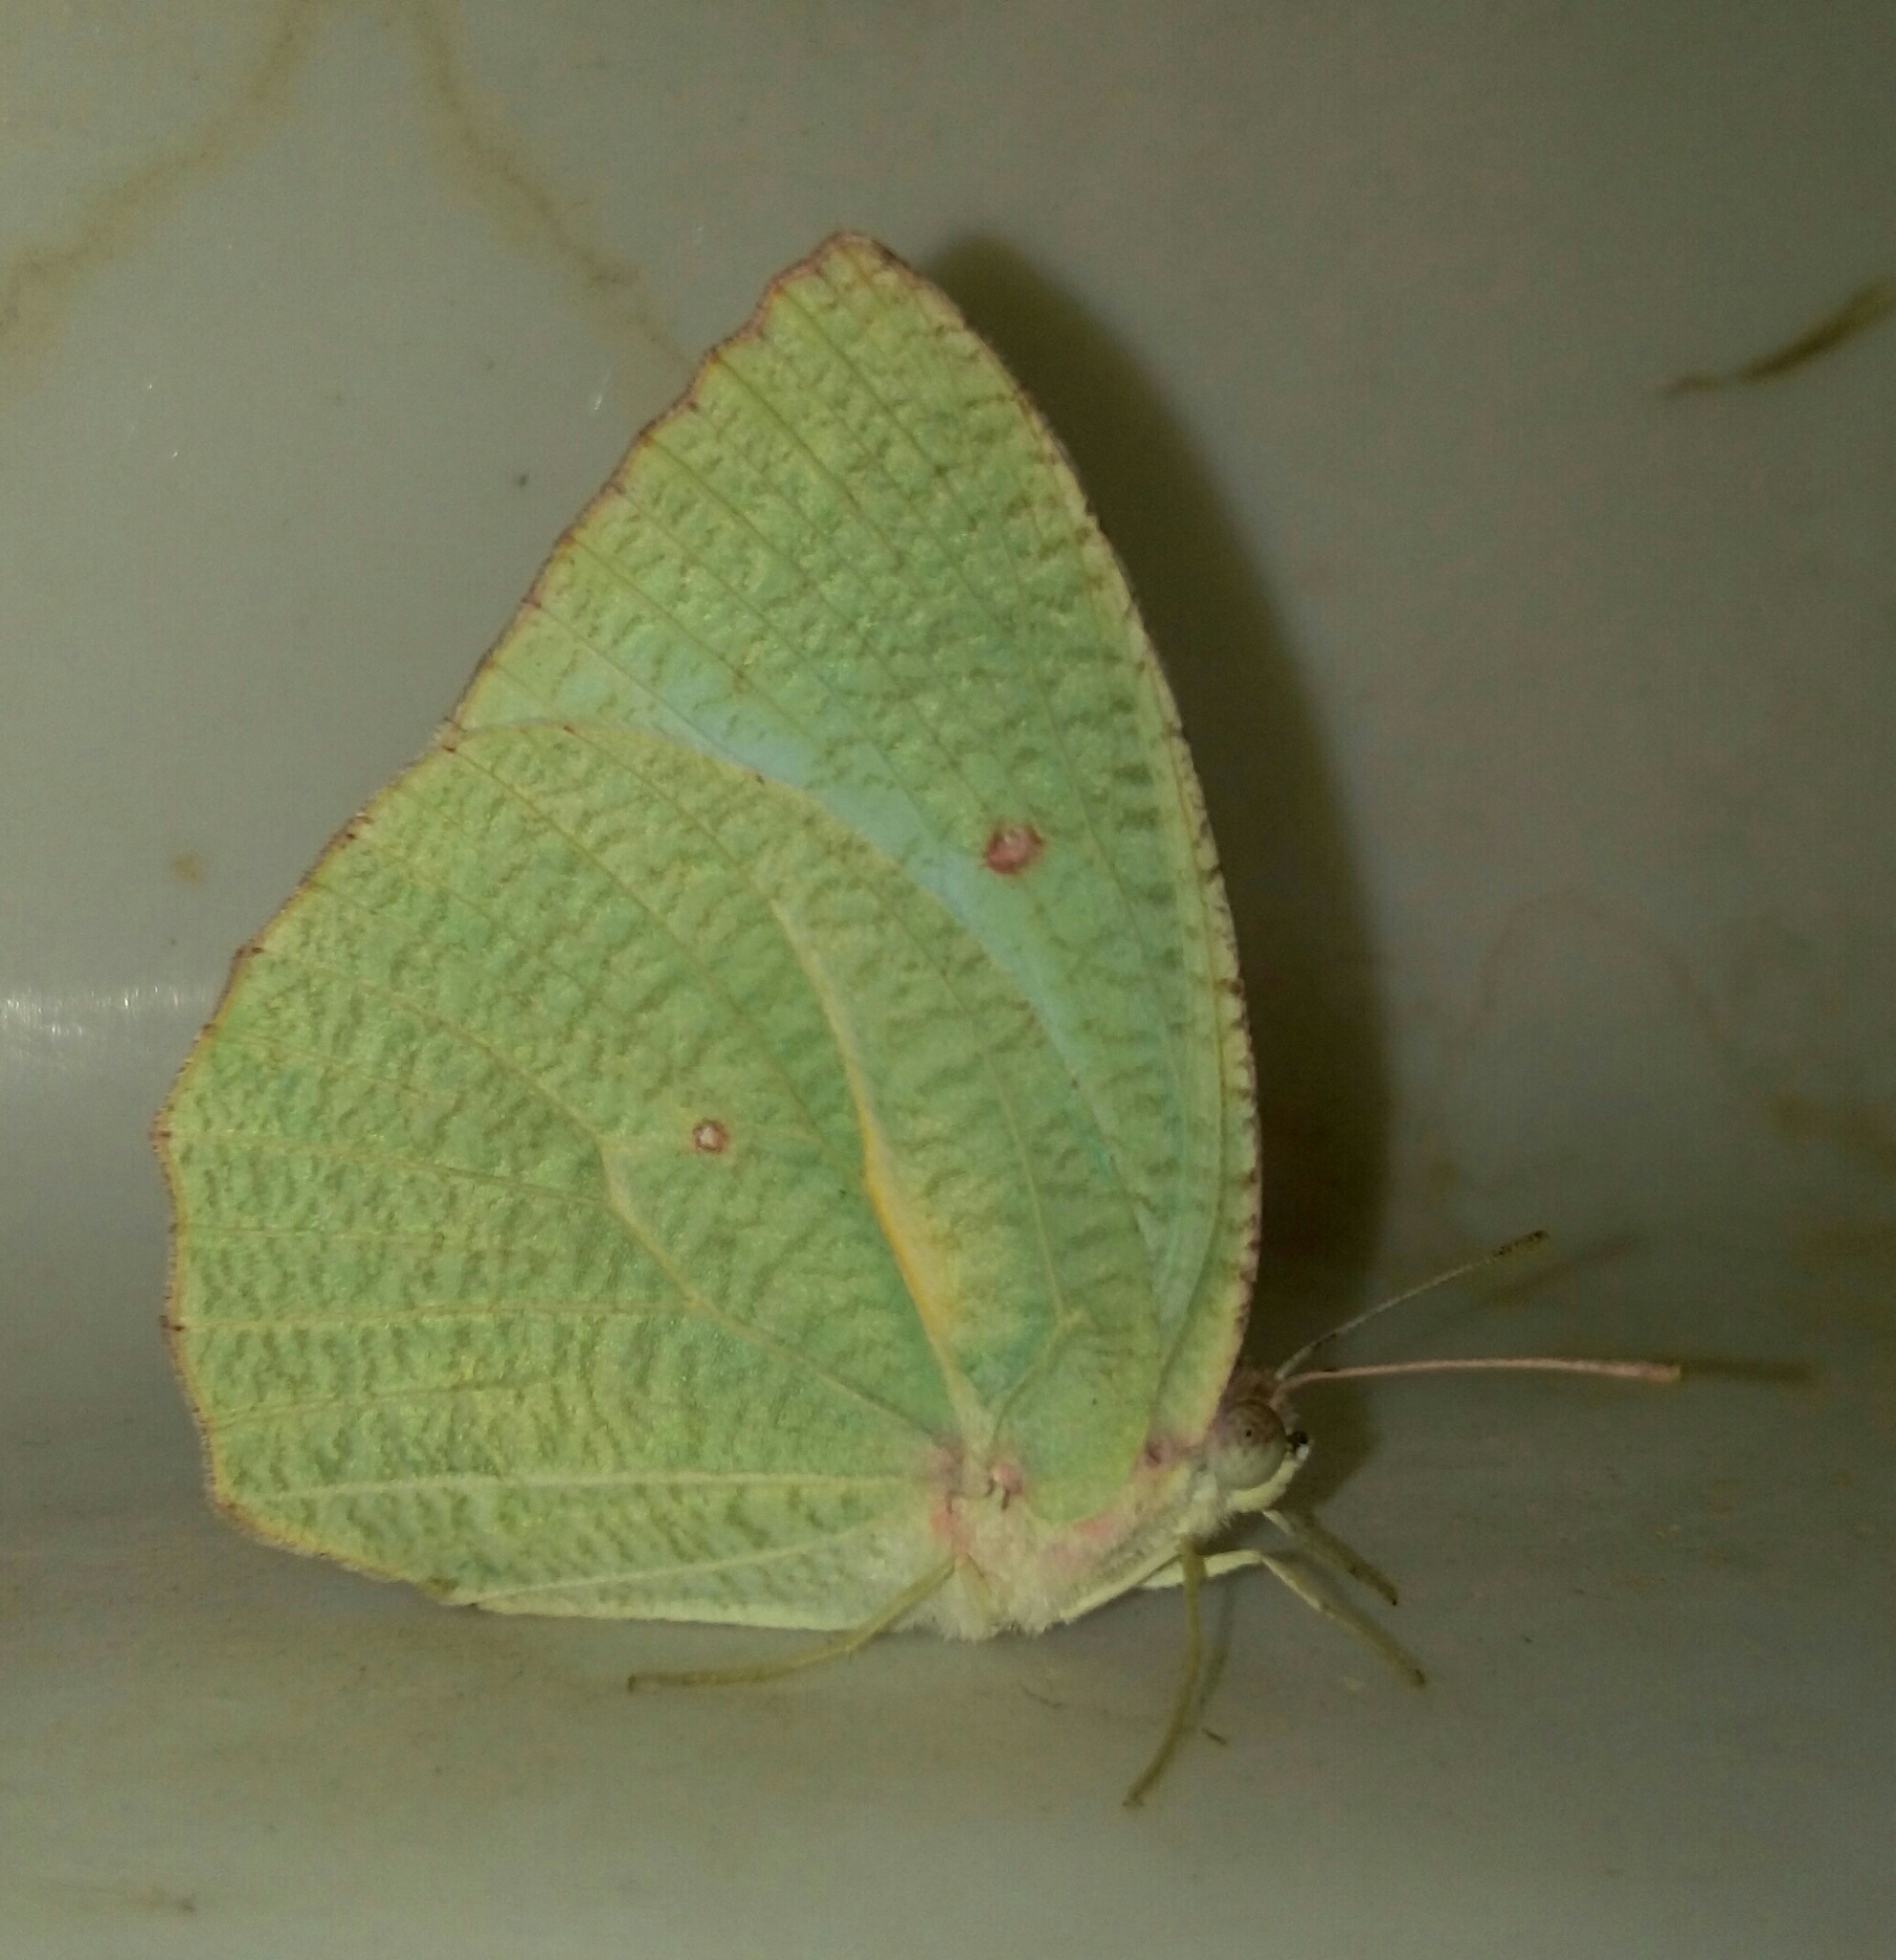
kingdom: Animalia
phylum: Arthropoda
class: Insecta
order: Lepidoptera
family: Pieridae
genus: Catopsilia
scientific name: Catopsilia pyranthe
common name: Mottled emigrant
